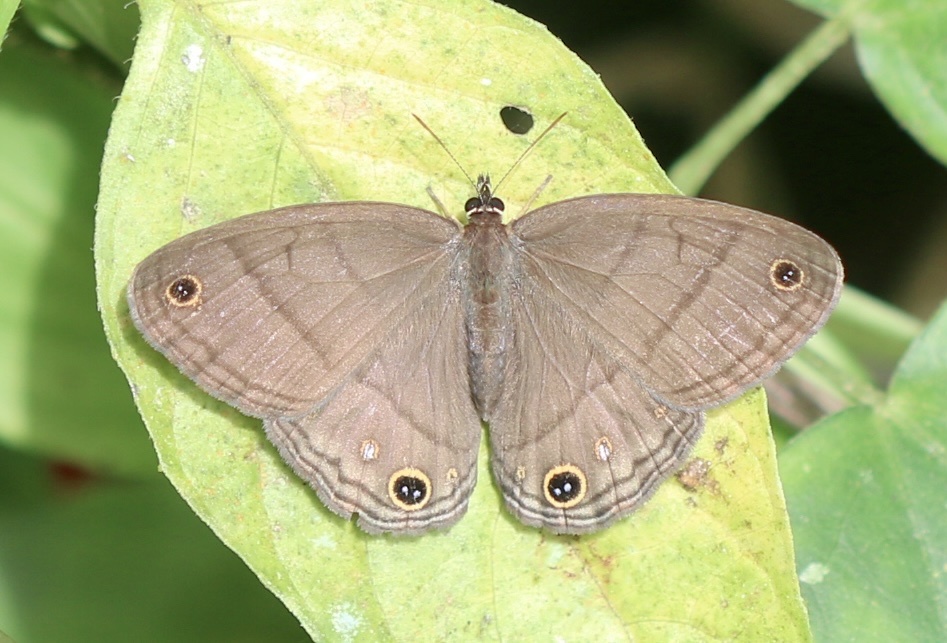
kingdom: Animalia
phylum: Arthropoda
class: Insecta
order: Lepidoptera
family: Nymphalidae
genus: Euptychia
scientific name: Euptychia Cissia pompilia
